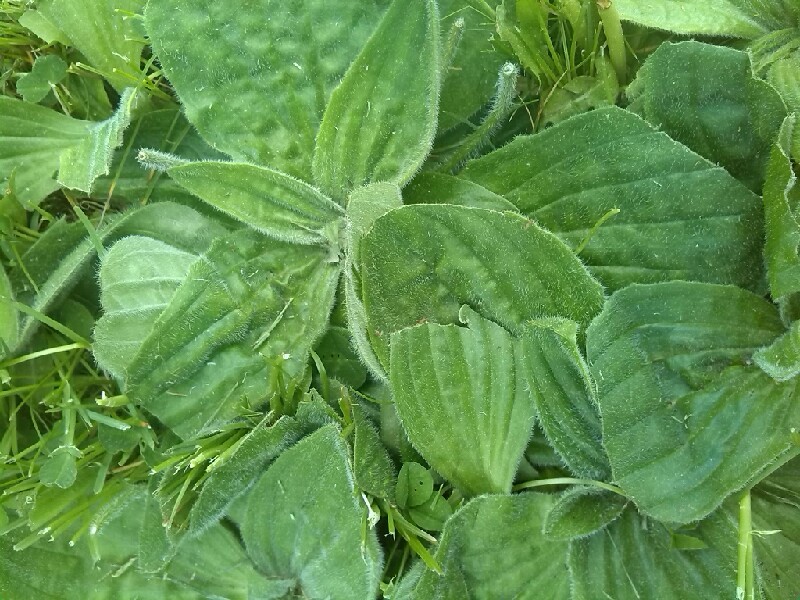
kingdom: Plantae
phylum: Tracheophyta
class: Magnoliopsida
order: Lamiales
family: Plantaginaceae
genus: Plantago
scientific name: Plantago media
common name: Hoary plantain
